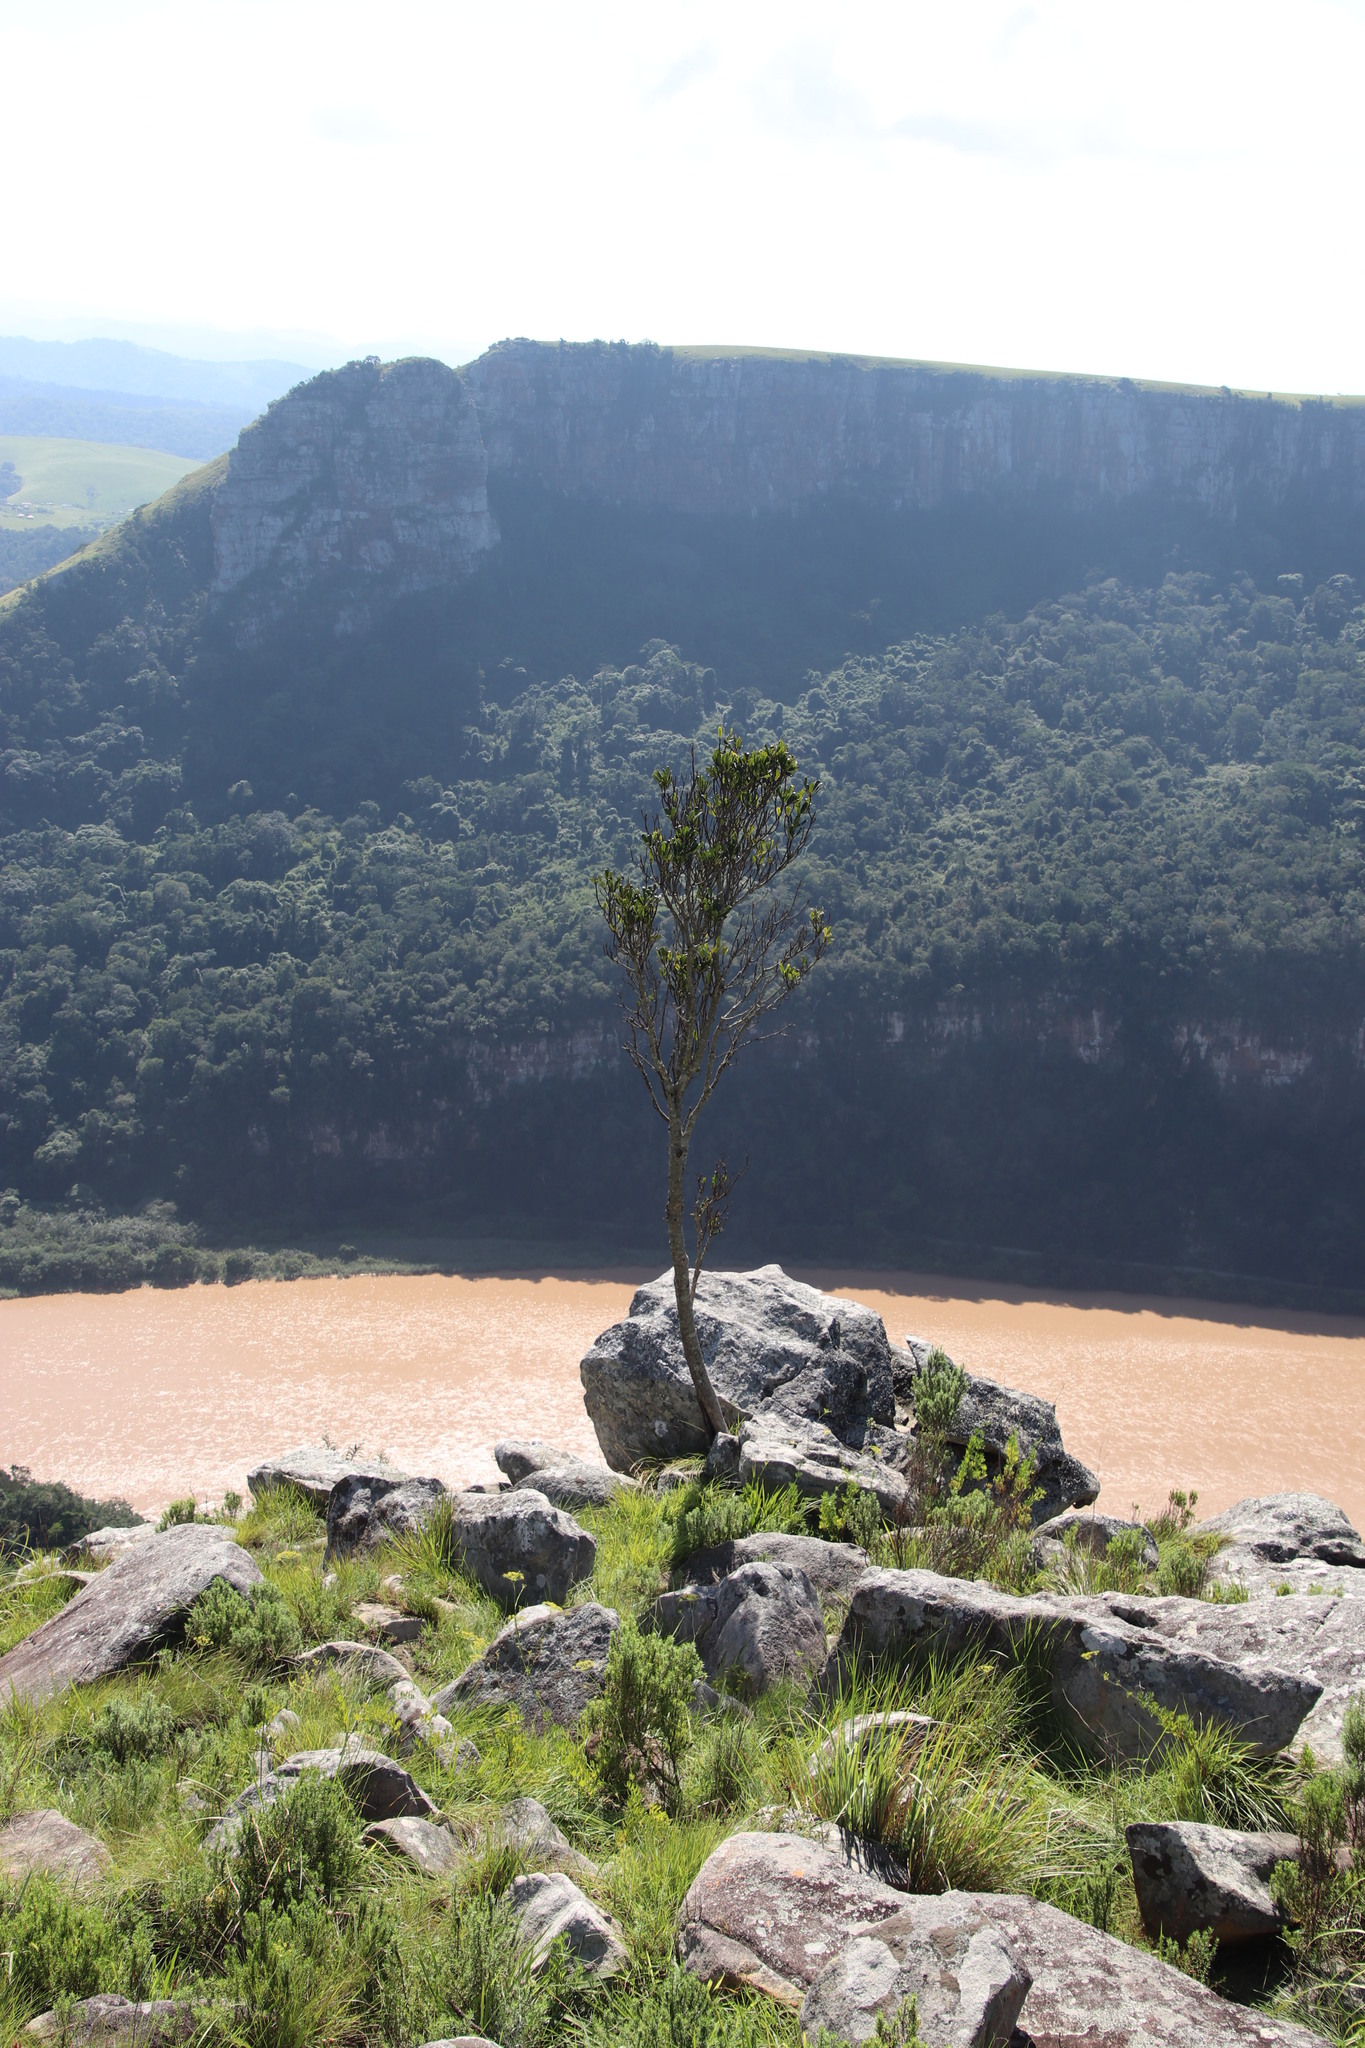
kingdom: Plantae
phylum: Tracheophyta
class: Magnoliopsida
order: Ericales
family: Primulaceae
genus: Myrsine
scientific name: Myrsine melanophloeos
